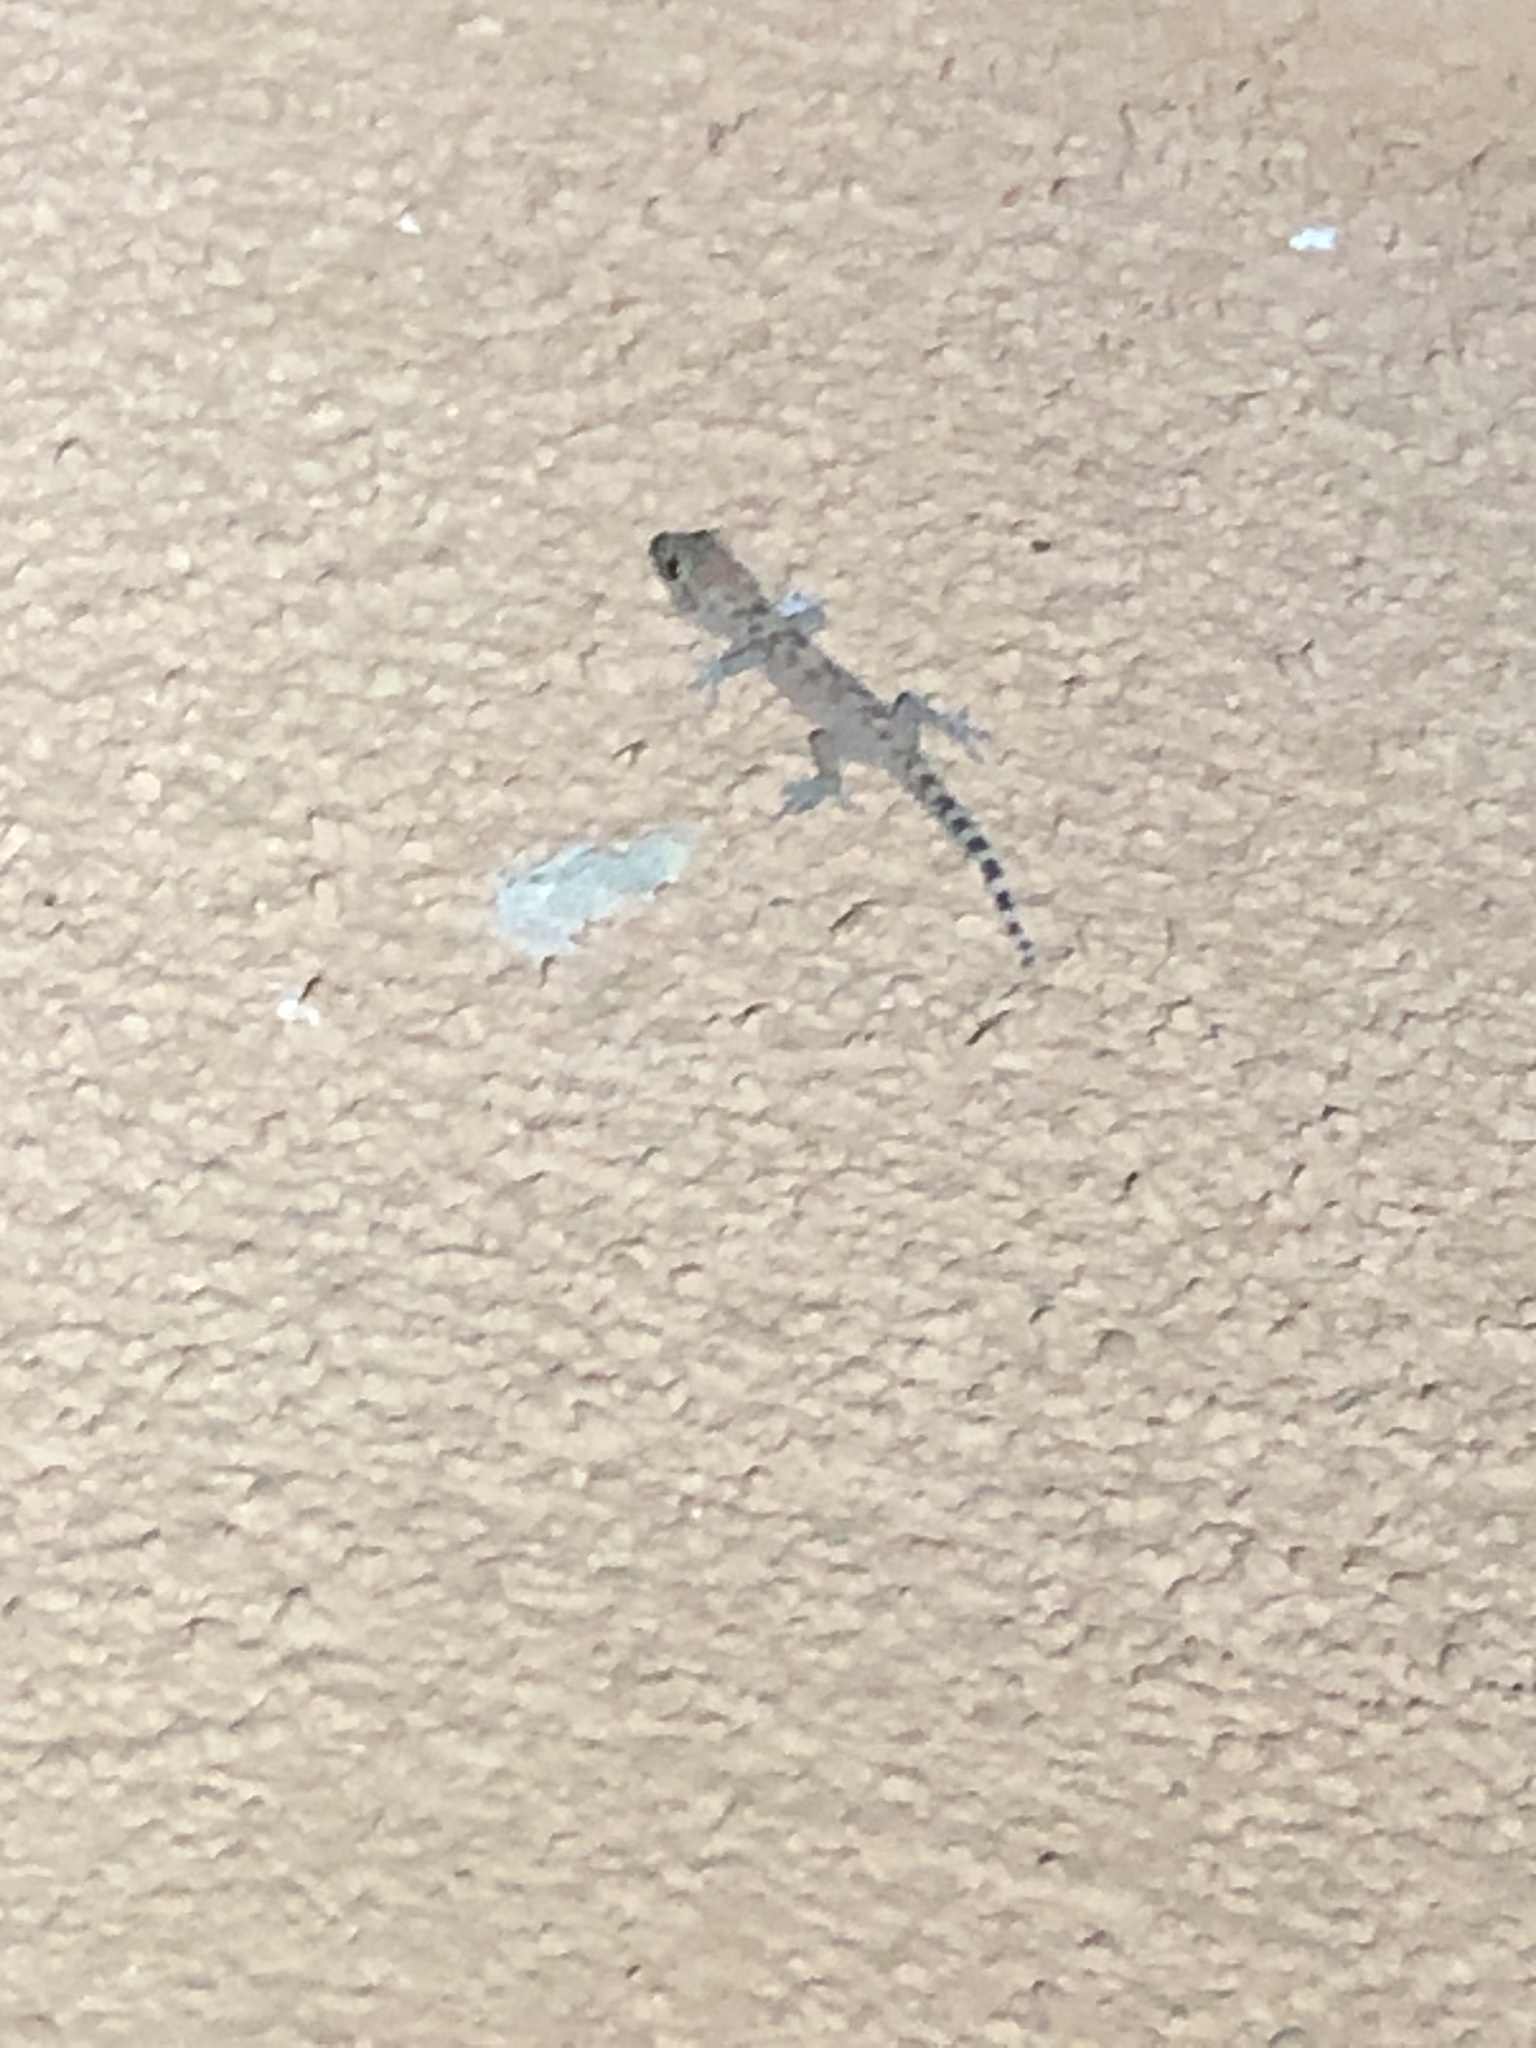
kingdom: Animalia
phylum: Chordata
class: Squamata
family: Gekkonidae
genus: Hemidactylus
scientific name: Hemidactylus turcicus
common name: Turkish gecko
